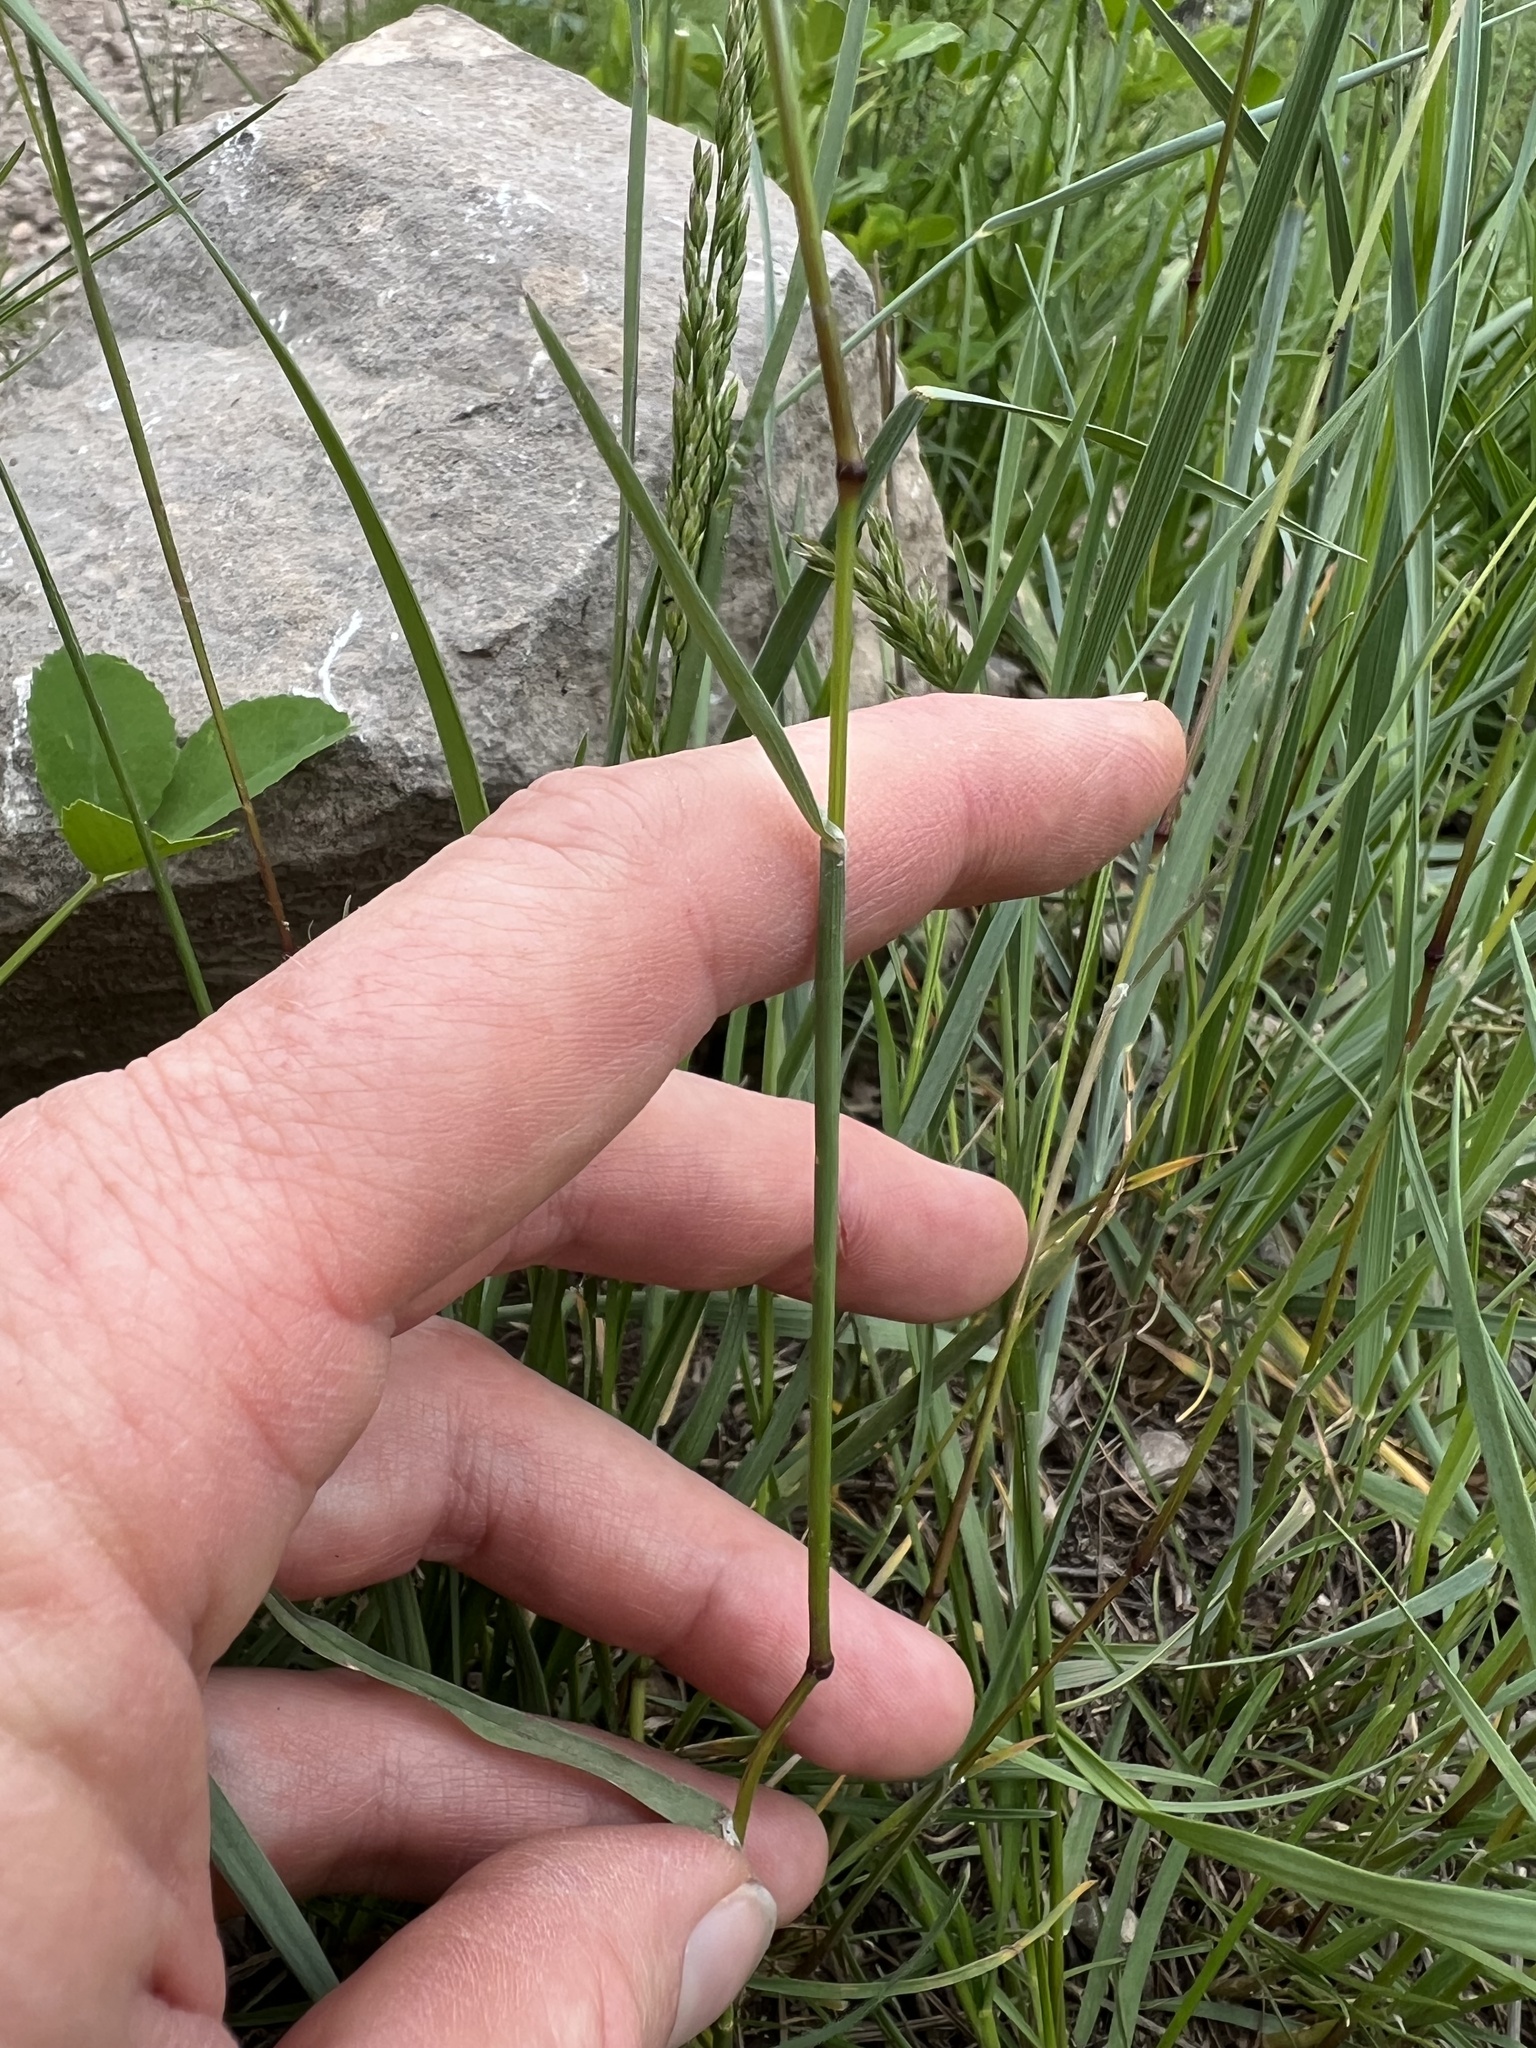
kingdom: Plantae
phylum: Tracheophyta
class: Liliopsida
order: Poales
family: Poaceae
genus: Poa
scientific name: Poa bulbosa
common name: Bulbous bluegrass
